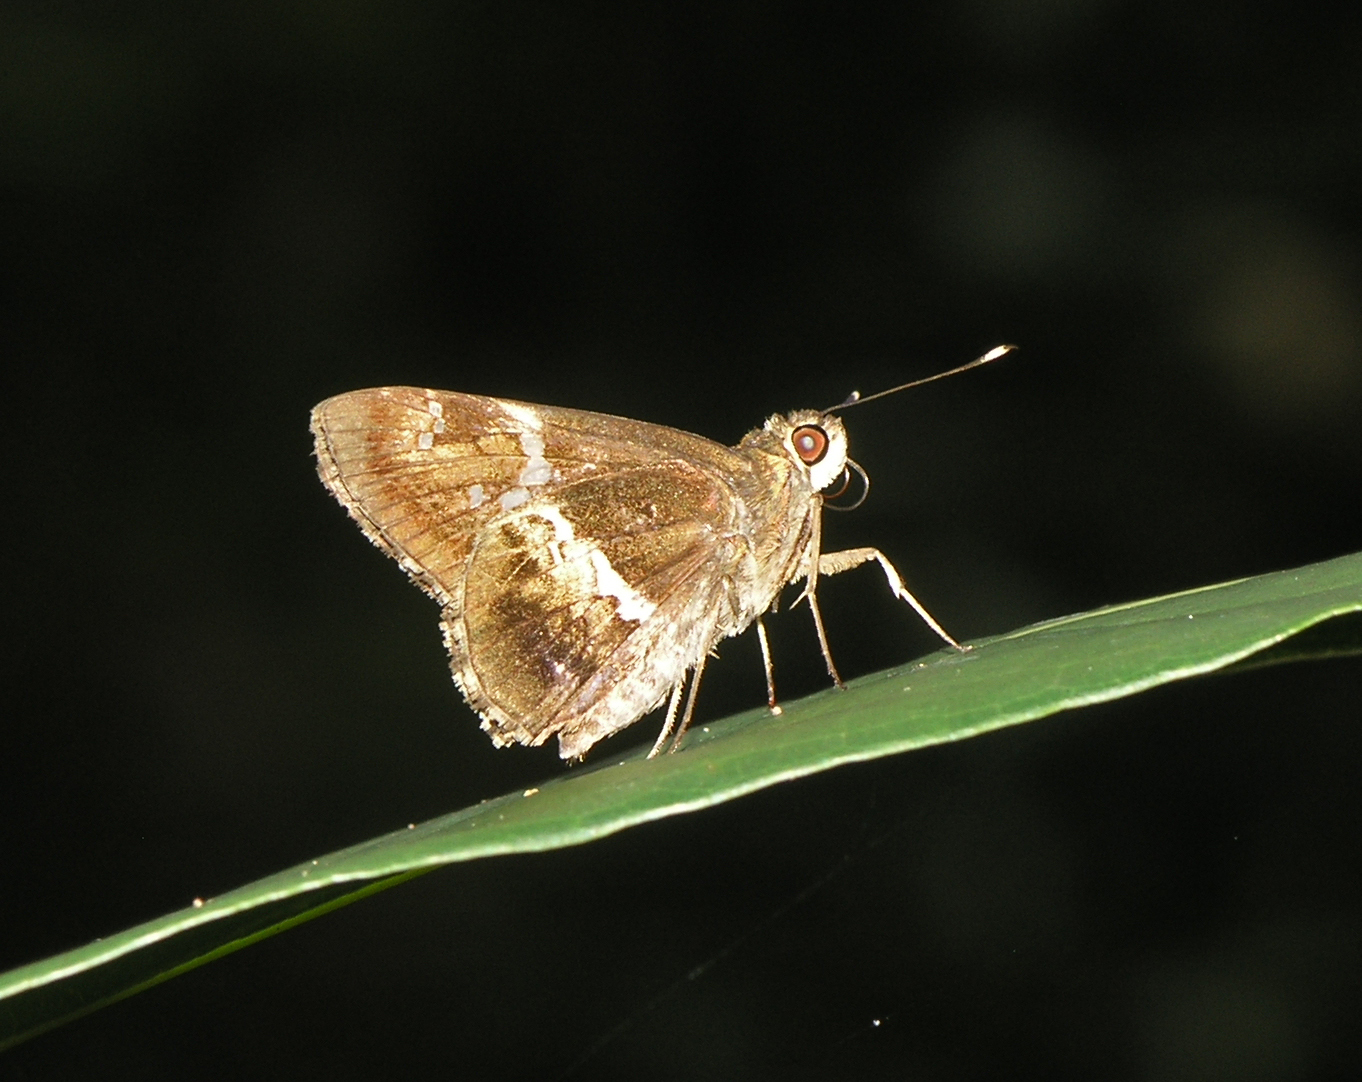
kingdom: Animalia
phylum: Arthropoda
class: Insecta
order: Lepidoptera
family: Hesperiidae
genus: Hyarotis
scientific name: Hyarotis adrastus
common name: Tree flitter
